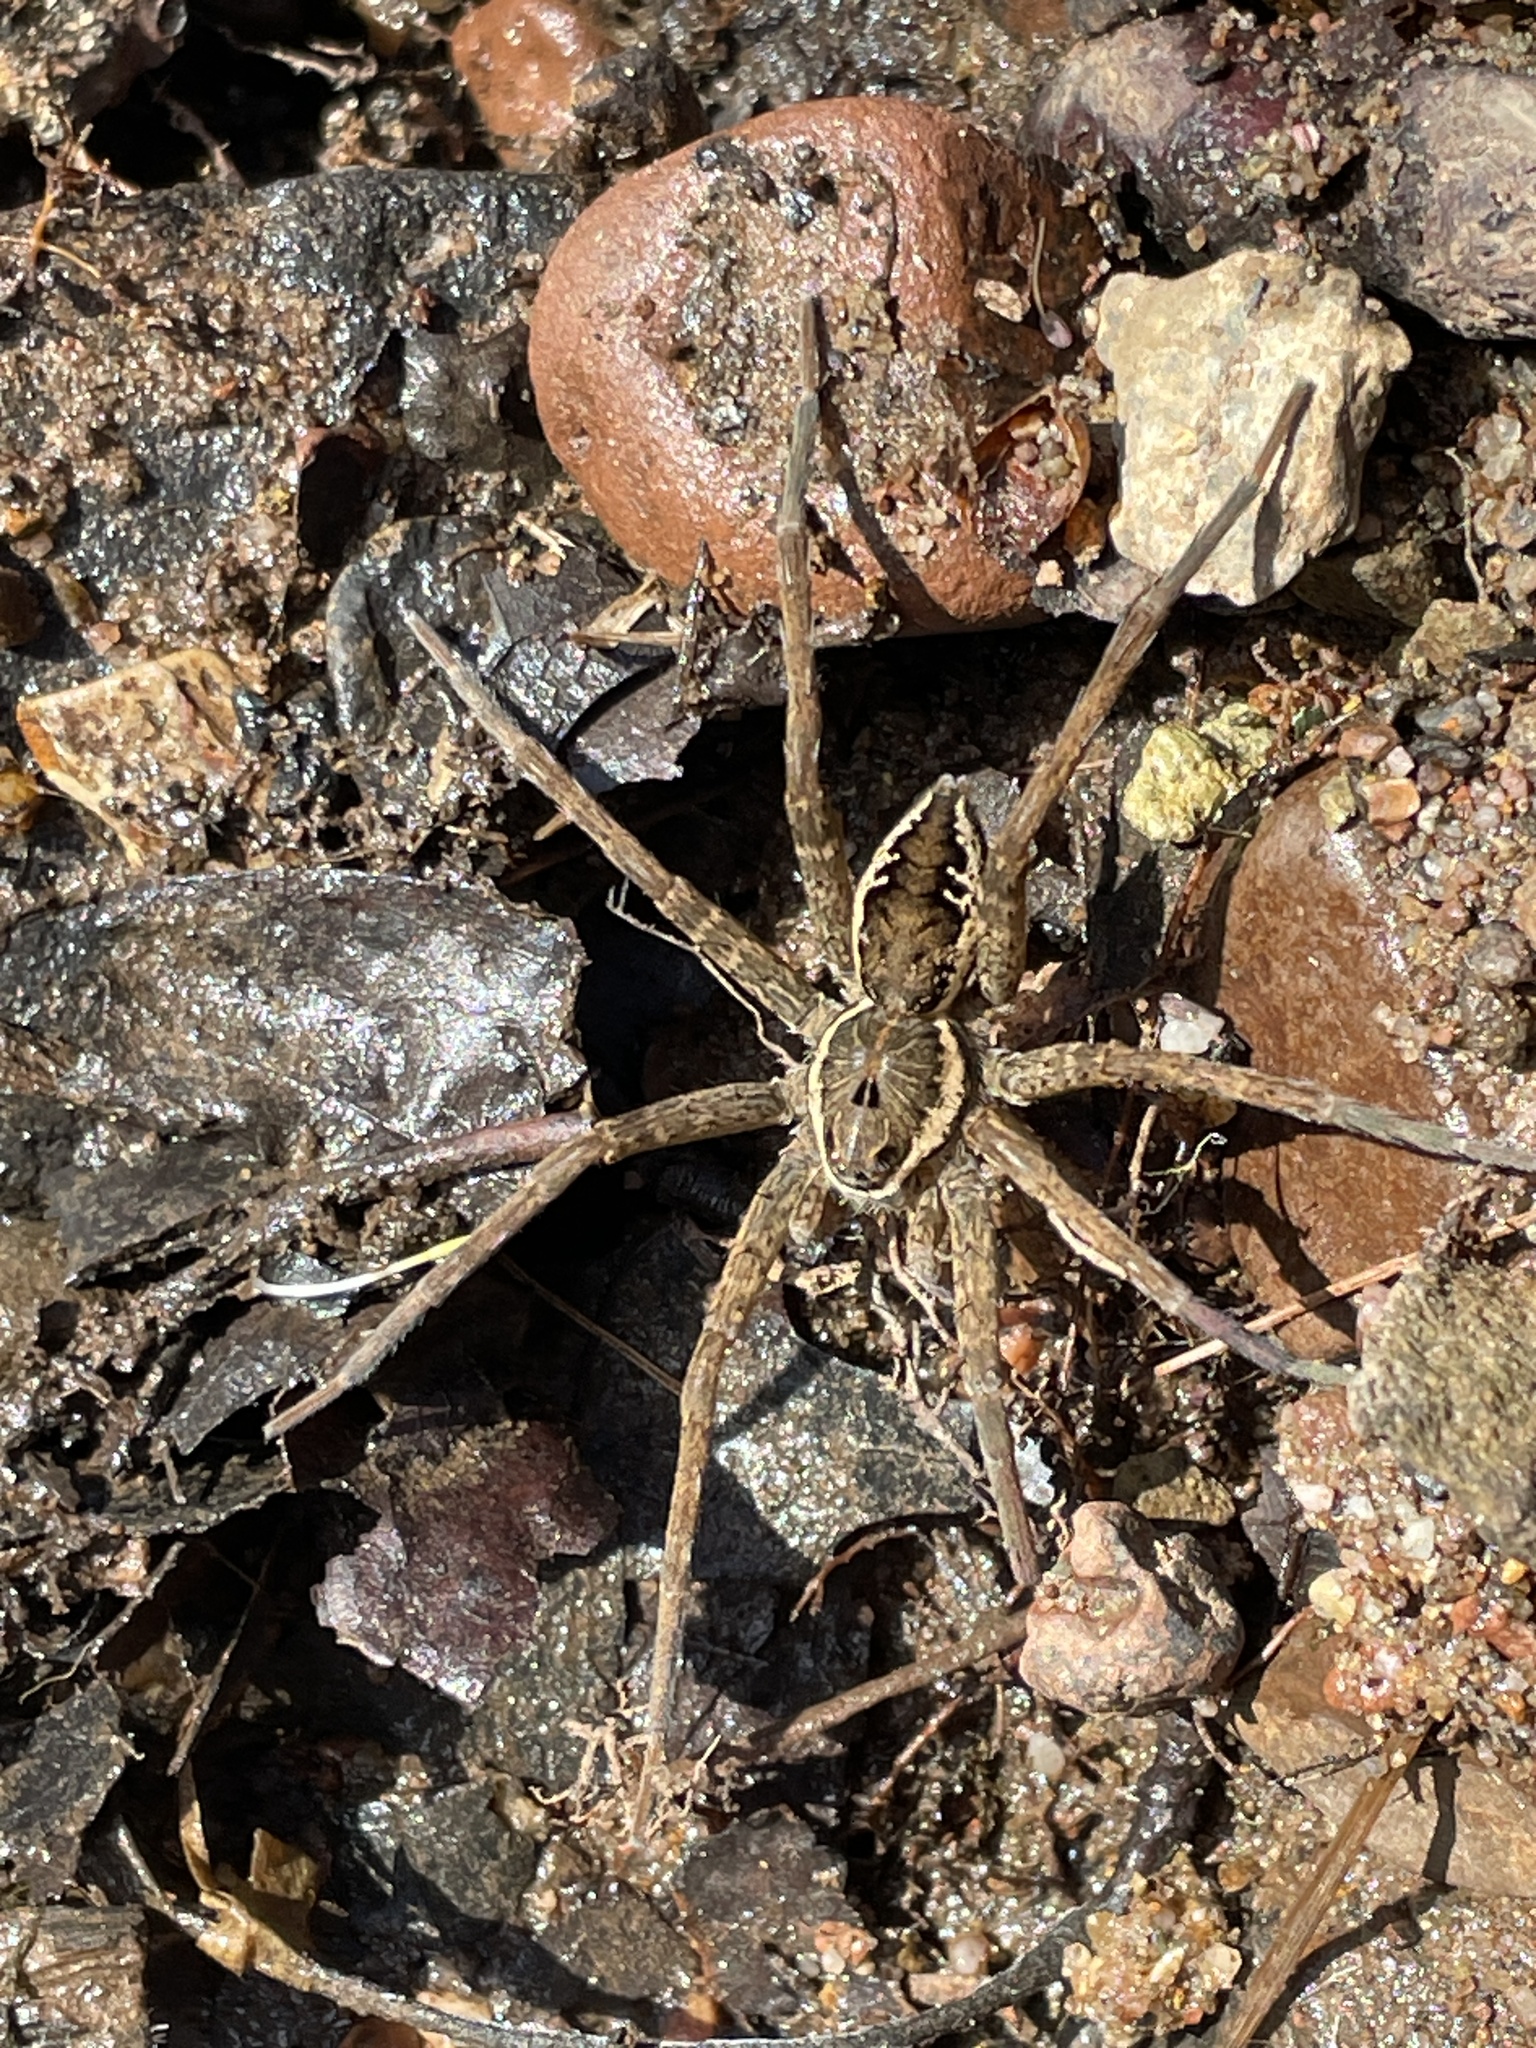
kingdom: Animalia
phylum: Arthropoda
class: Arachnida
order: Araneae
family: Pisauridae
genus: Dolomedes
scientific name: Dolomedes vittatus
